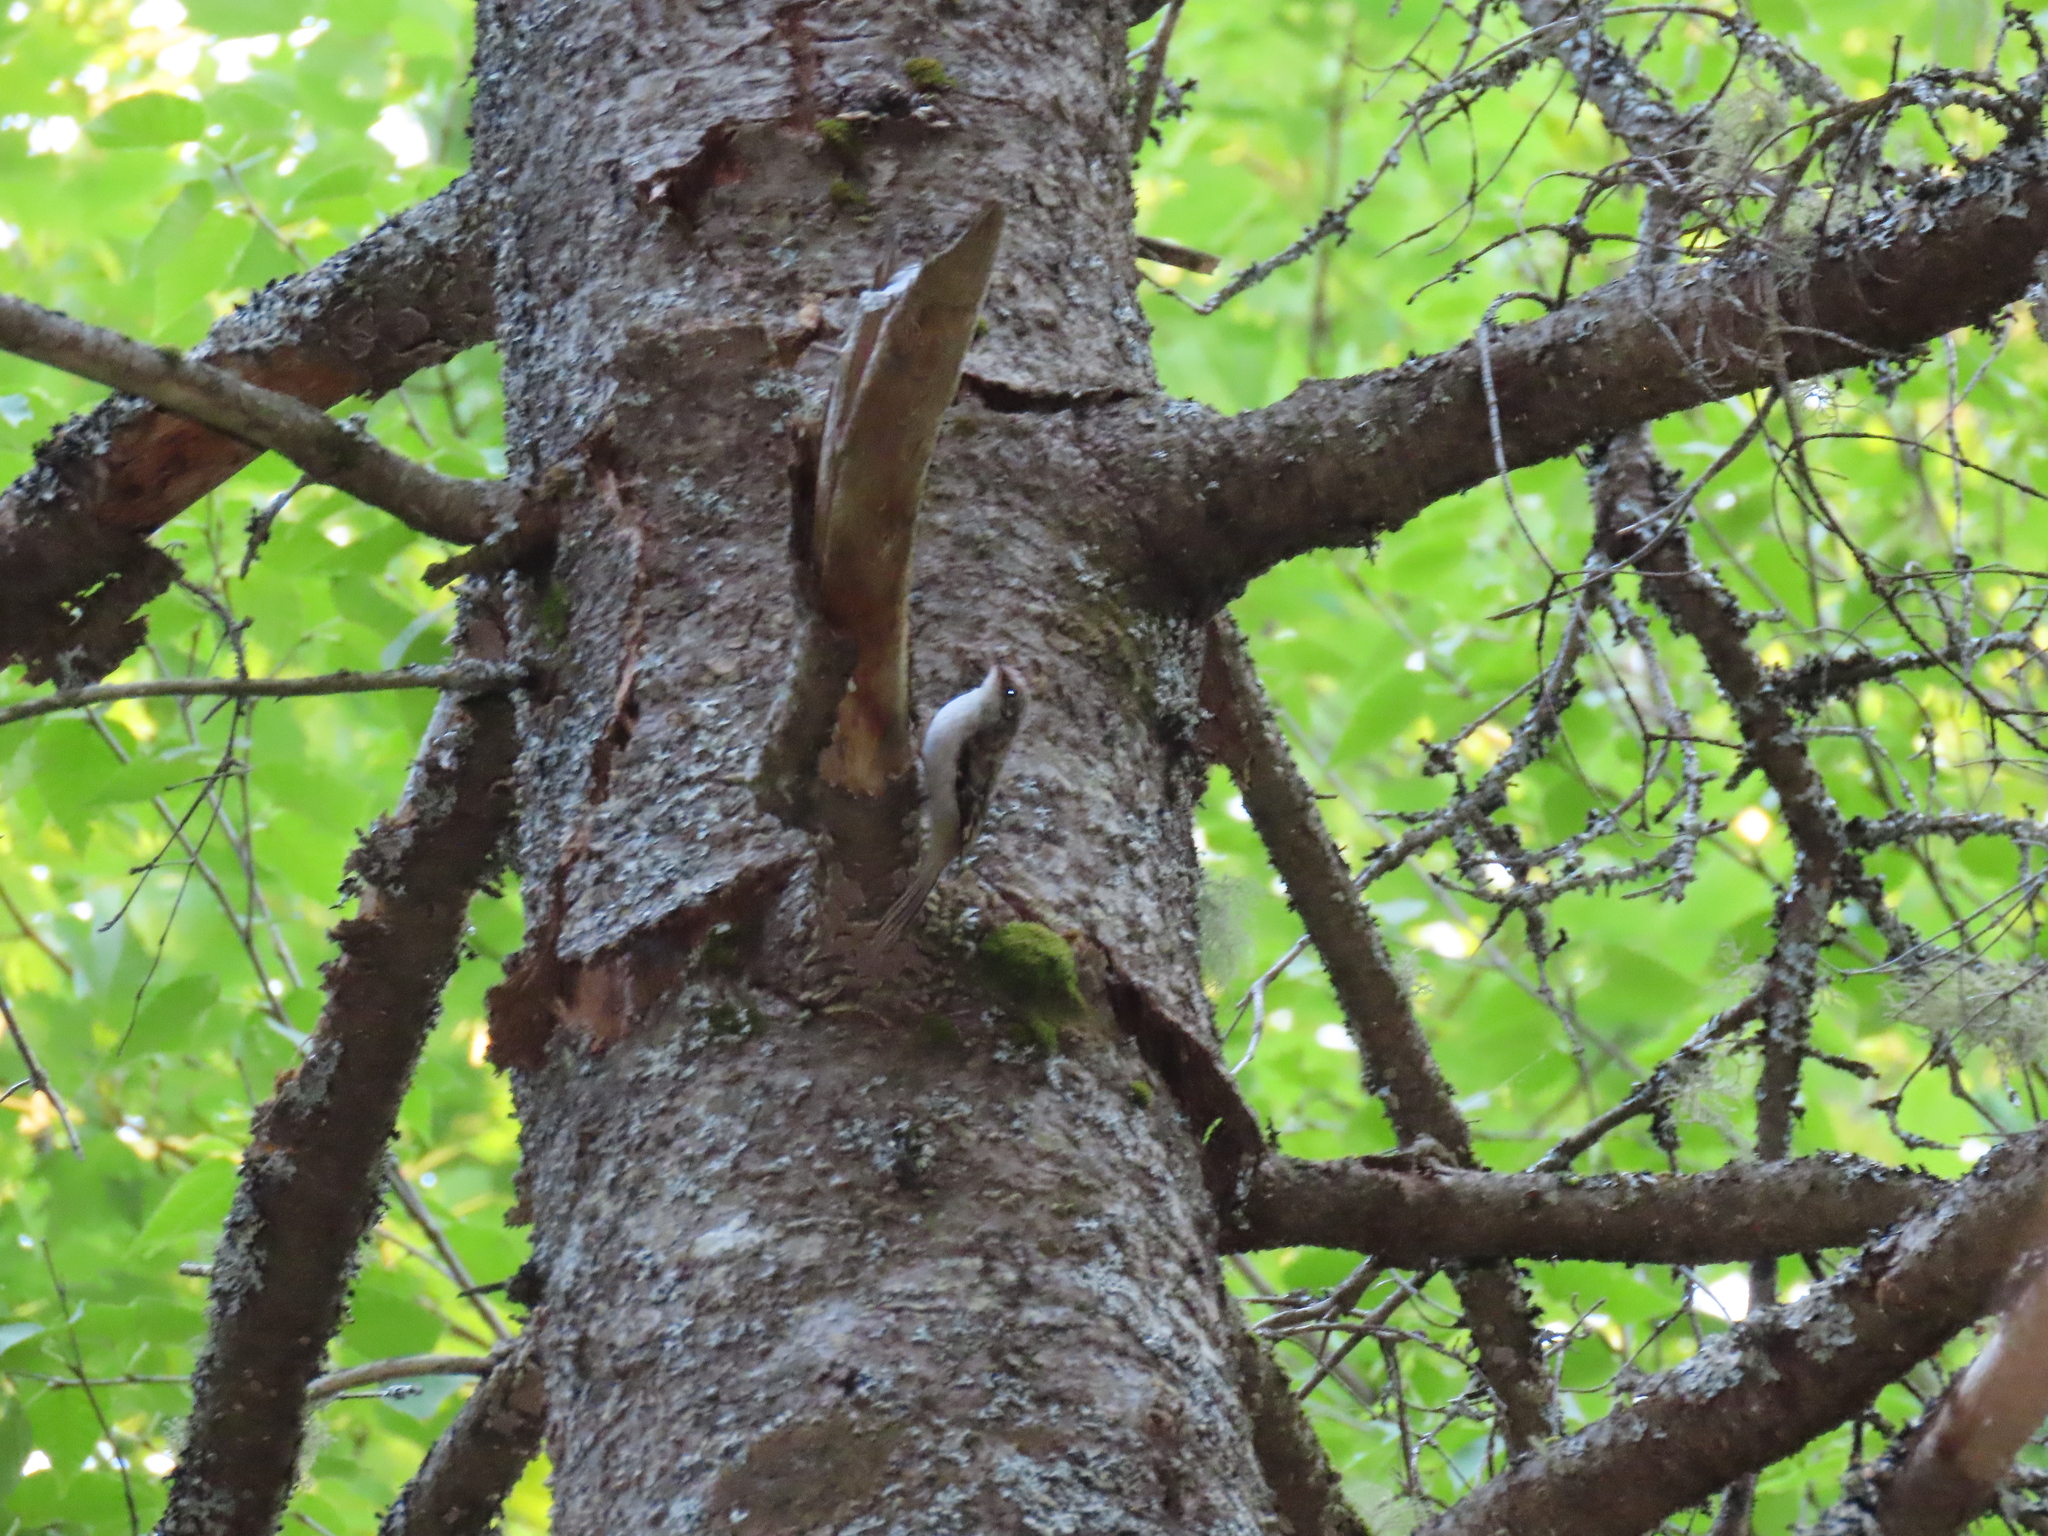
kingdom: Animalia
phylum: Chordata
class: Aves
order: Passeriformes
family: Certhiidae
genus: Certhia
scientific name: Certhia americana
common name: Brown creeper
